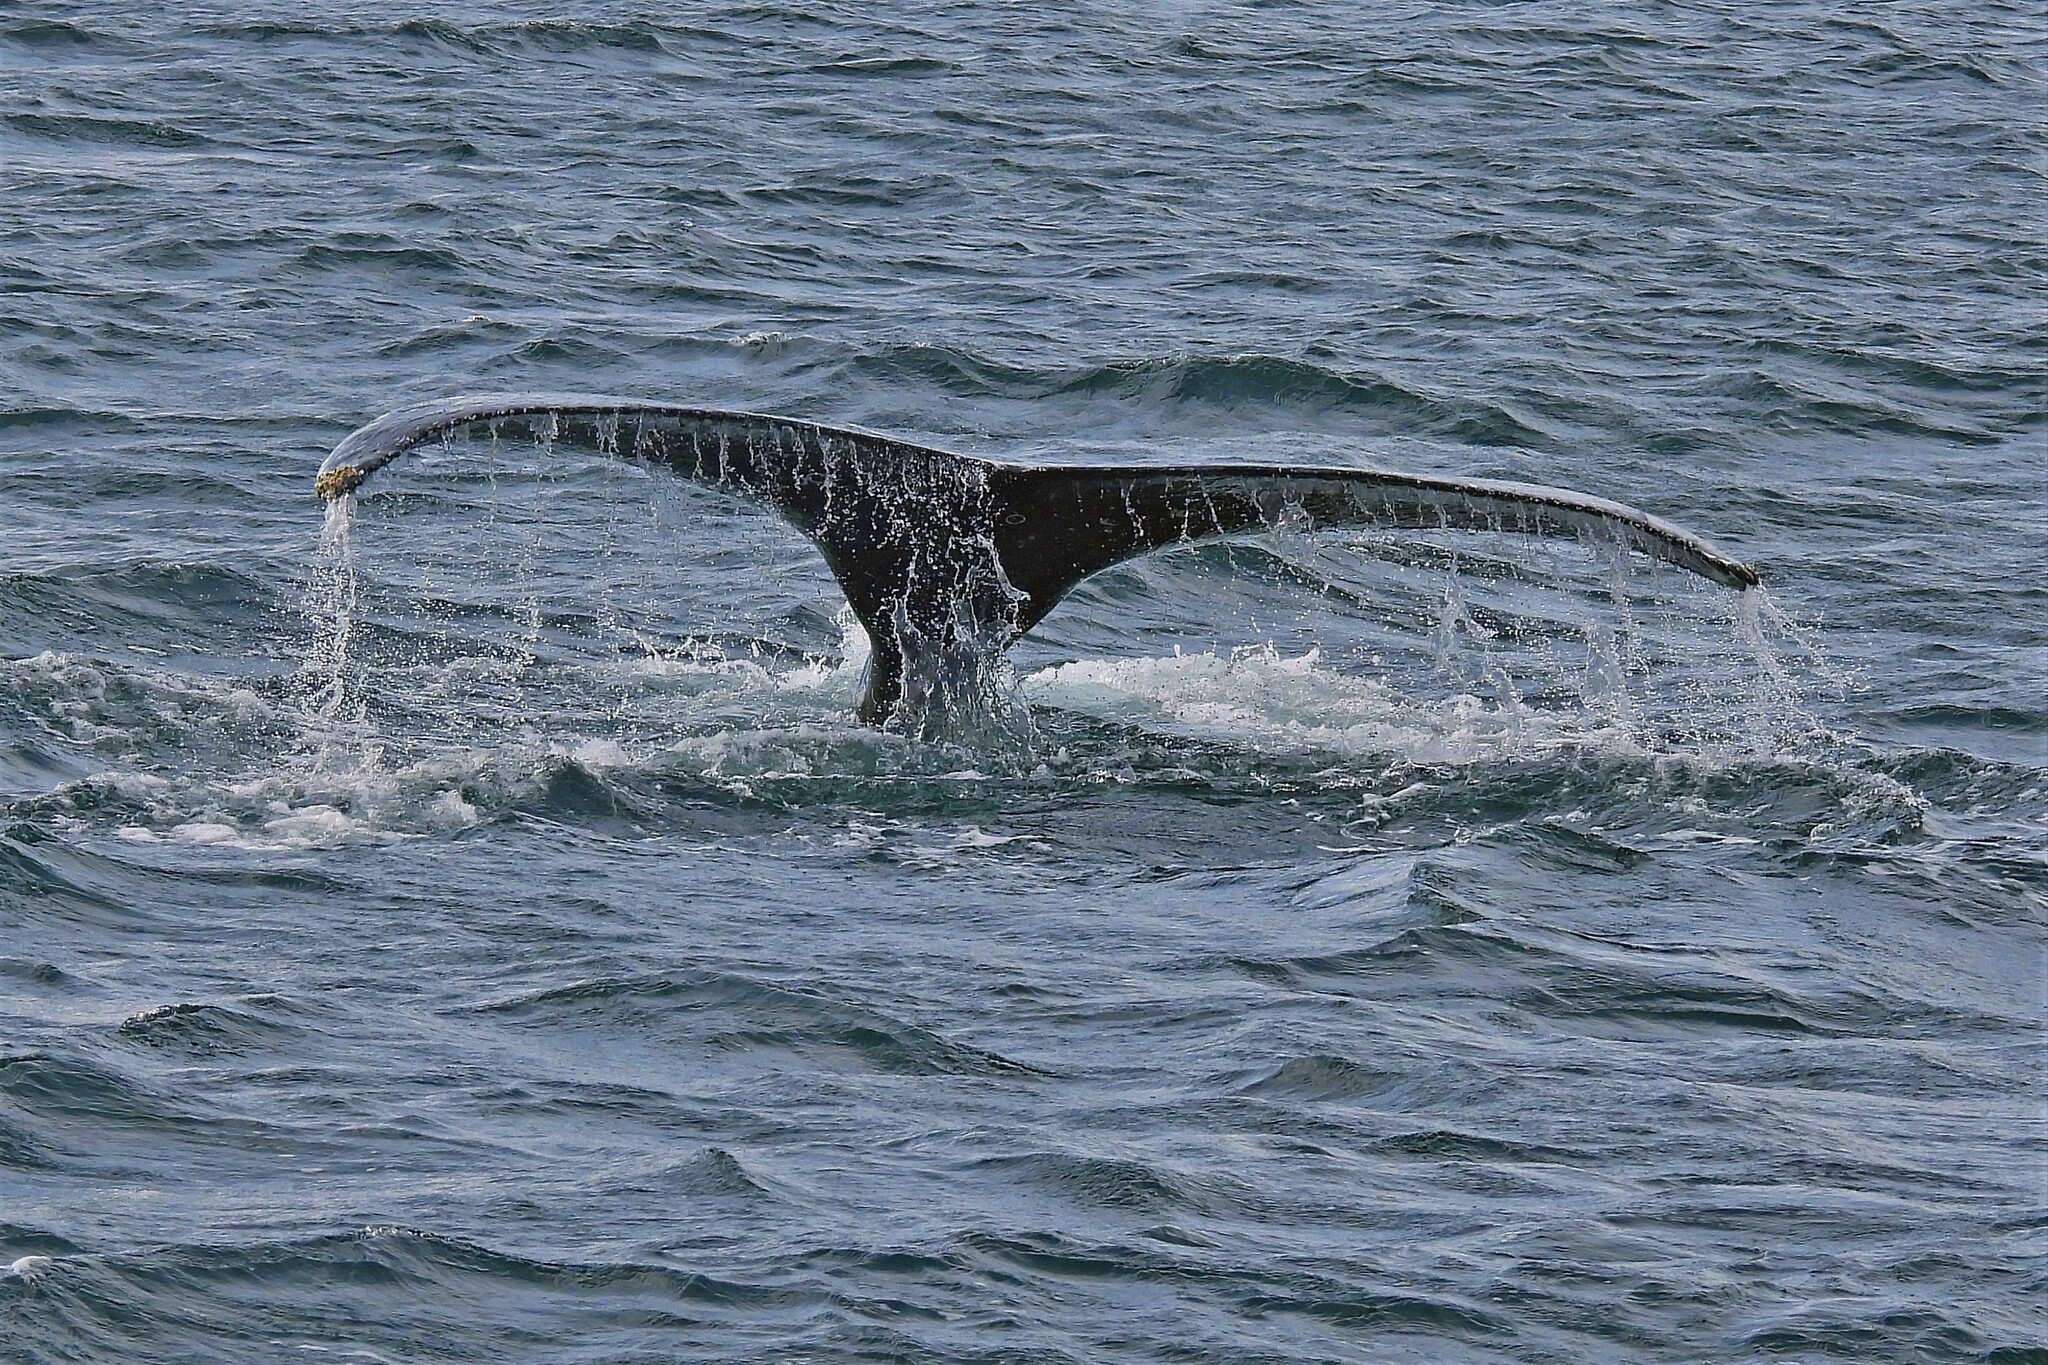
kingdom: Animalia
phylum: Chordata
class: Mammalia
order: Cetacea
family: Balaenopteridae
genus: Megaptera
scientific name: Megaptera novaeangliae
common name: Humpback whale
